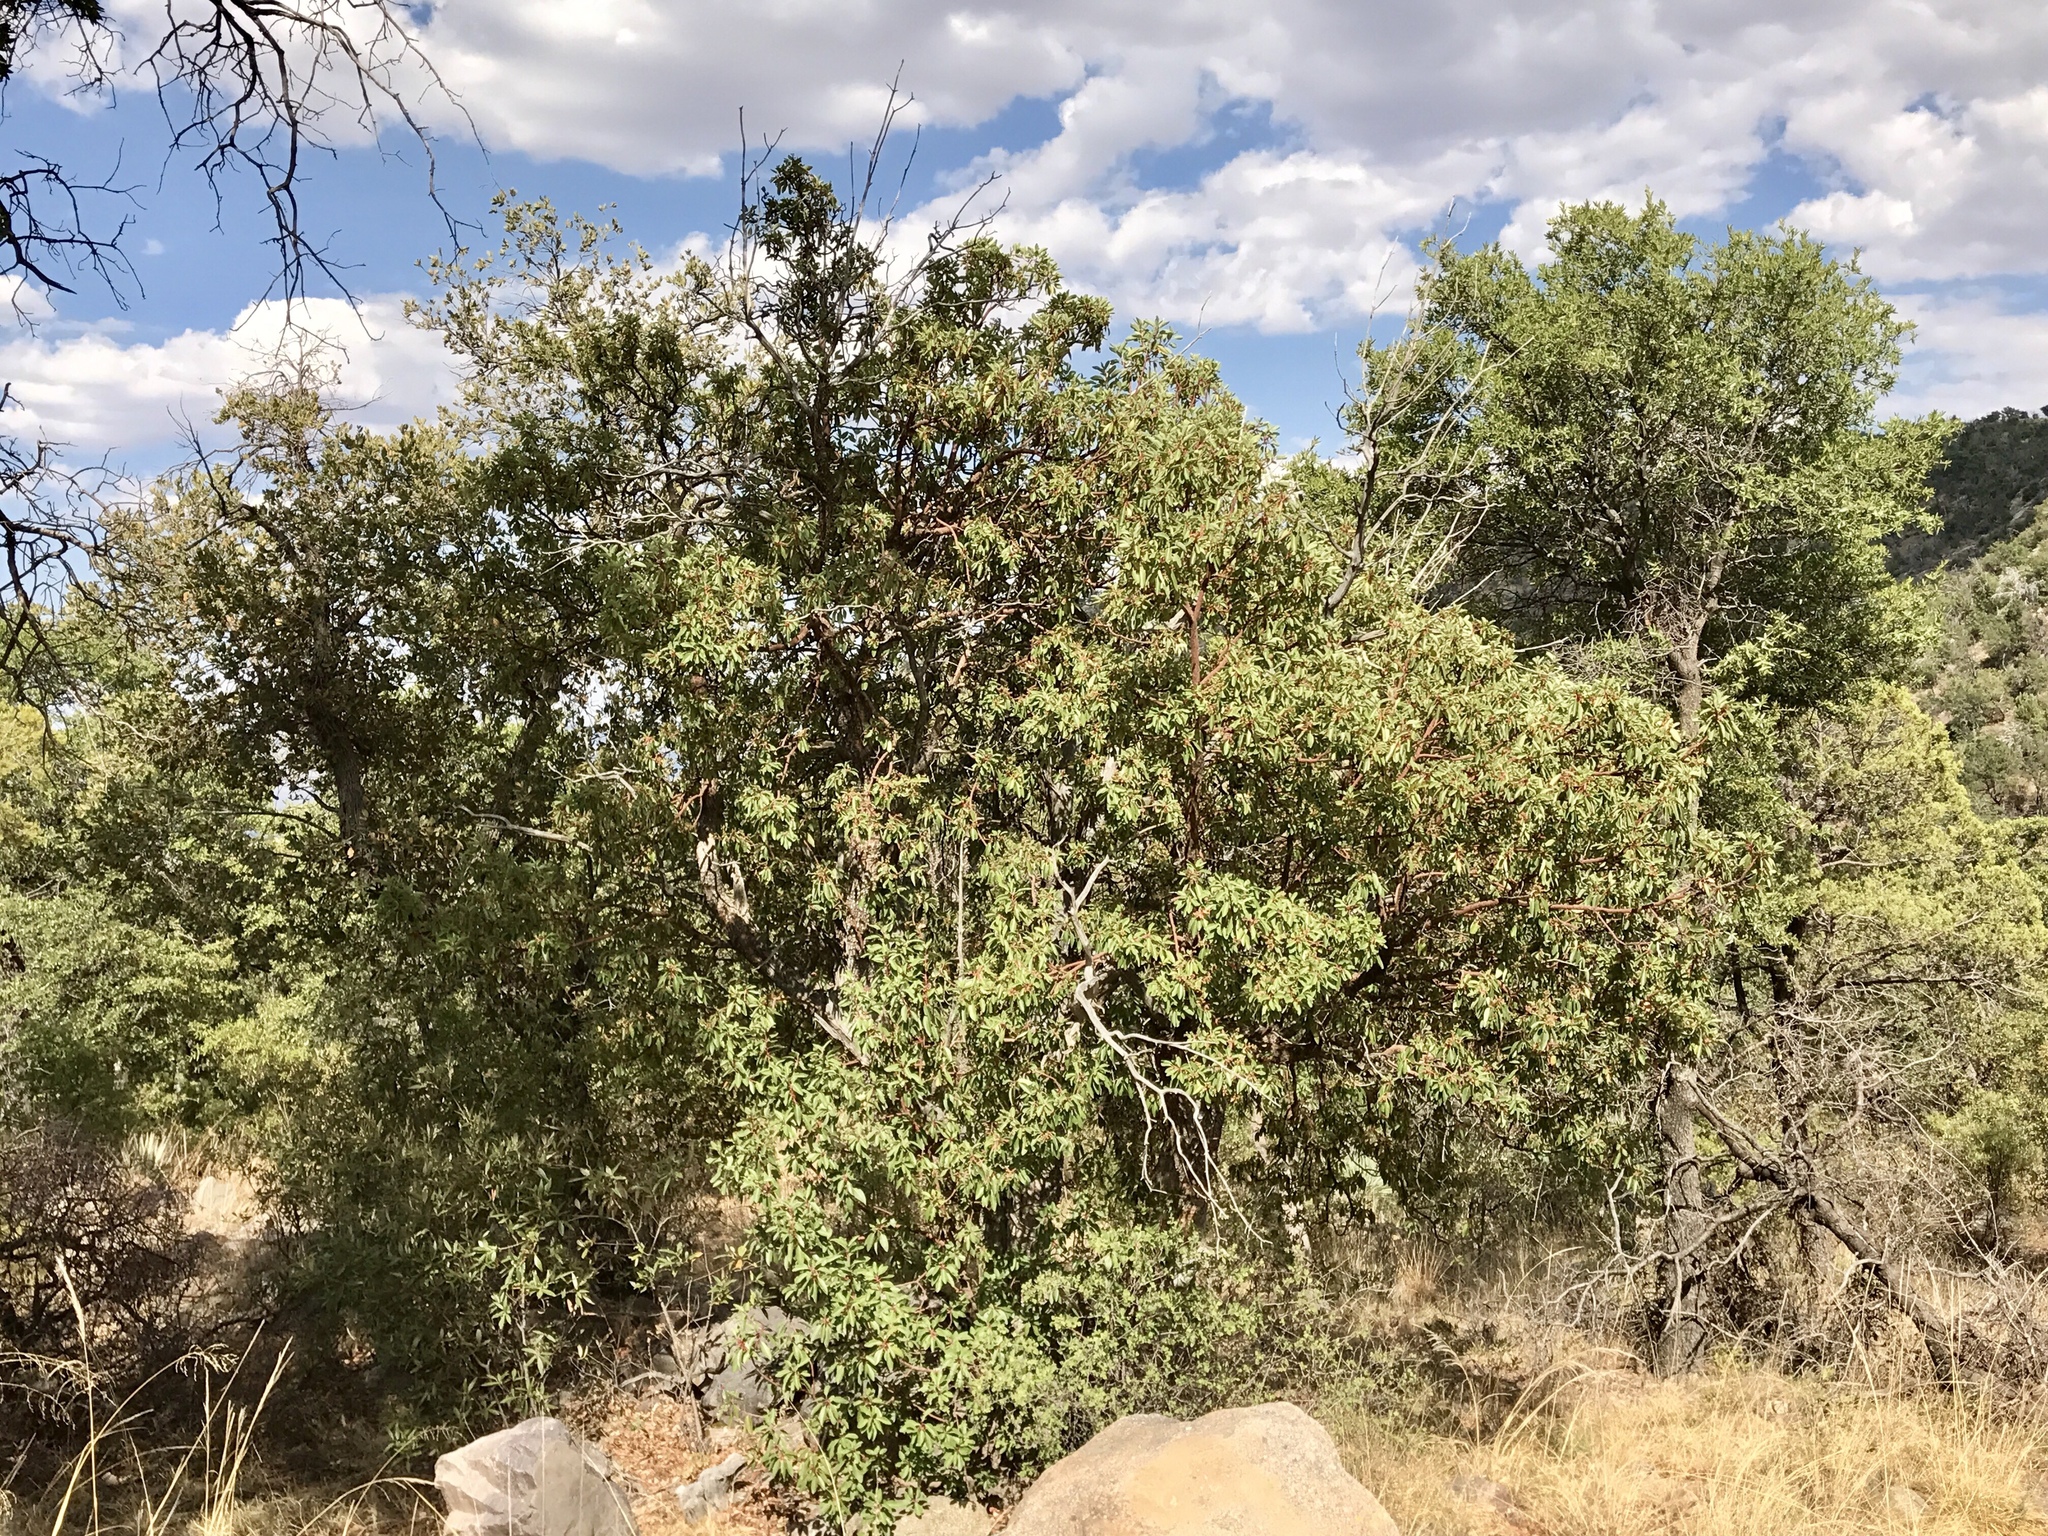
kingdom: Plantae
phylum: Tracheophyta
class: Magnoliopsida
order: Ericales
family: Ericaceae
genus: Arbutus
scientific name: Arbutus arizonica
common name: Arizona madrone
